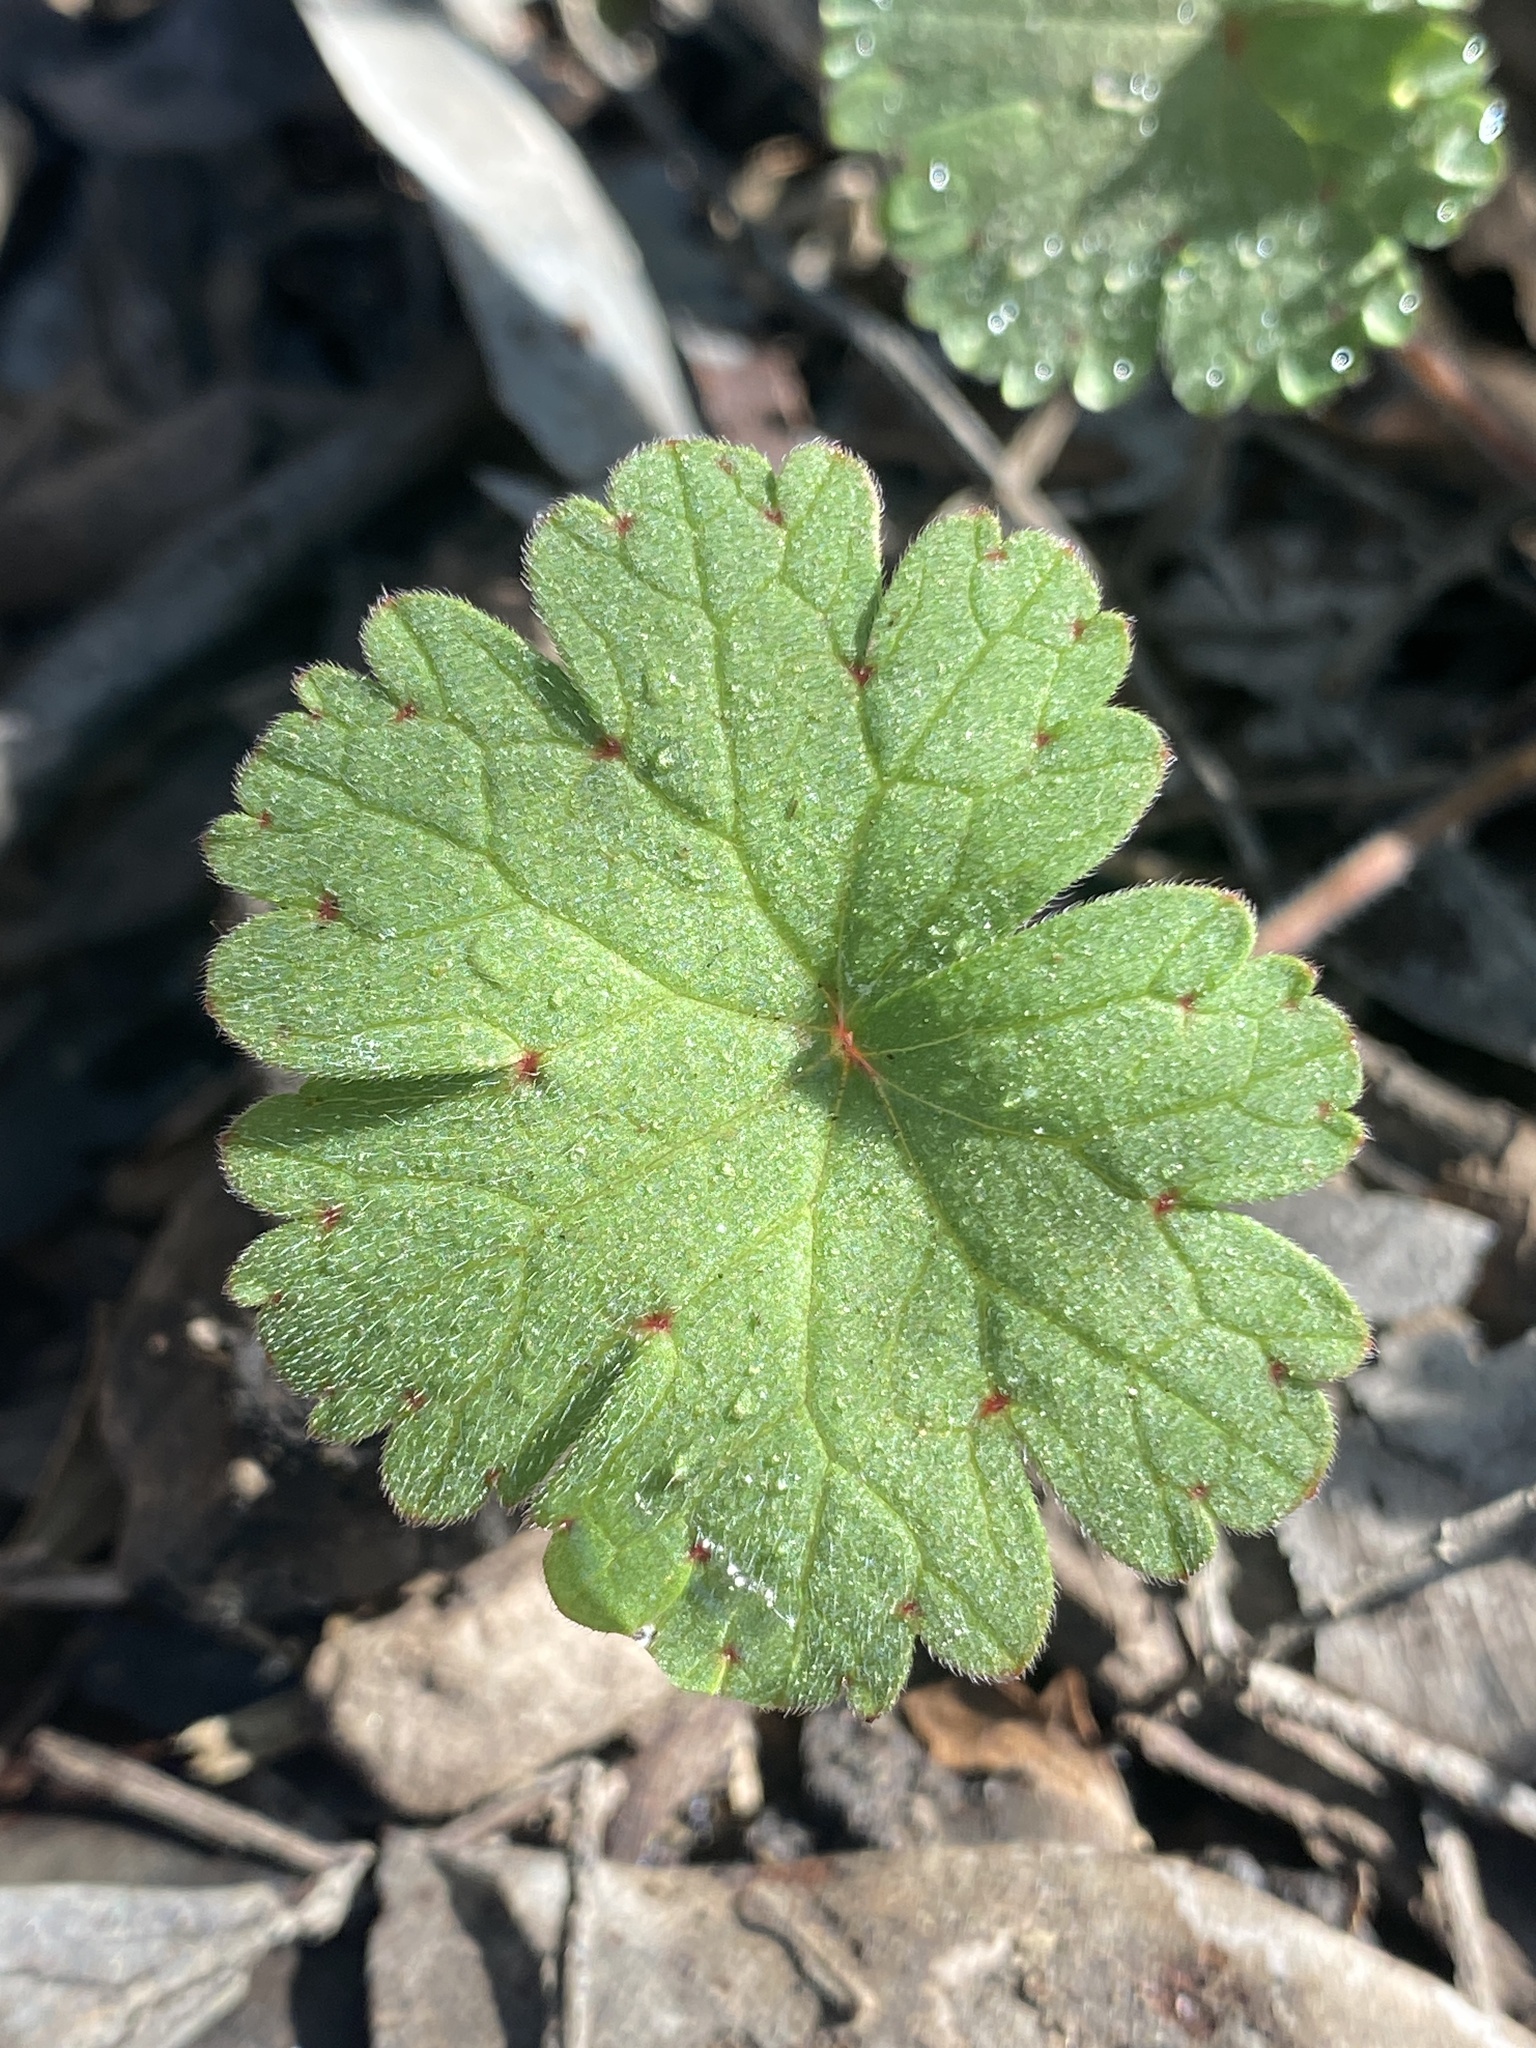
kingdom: Plantae
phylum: Tracheophyta
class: Magnoliopsida
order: Geraniales
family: Geraniaceae
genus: Geranium
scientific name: Geranium
